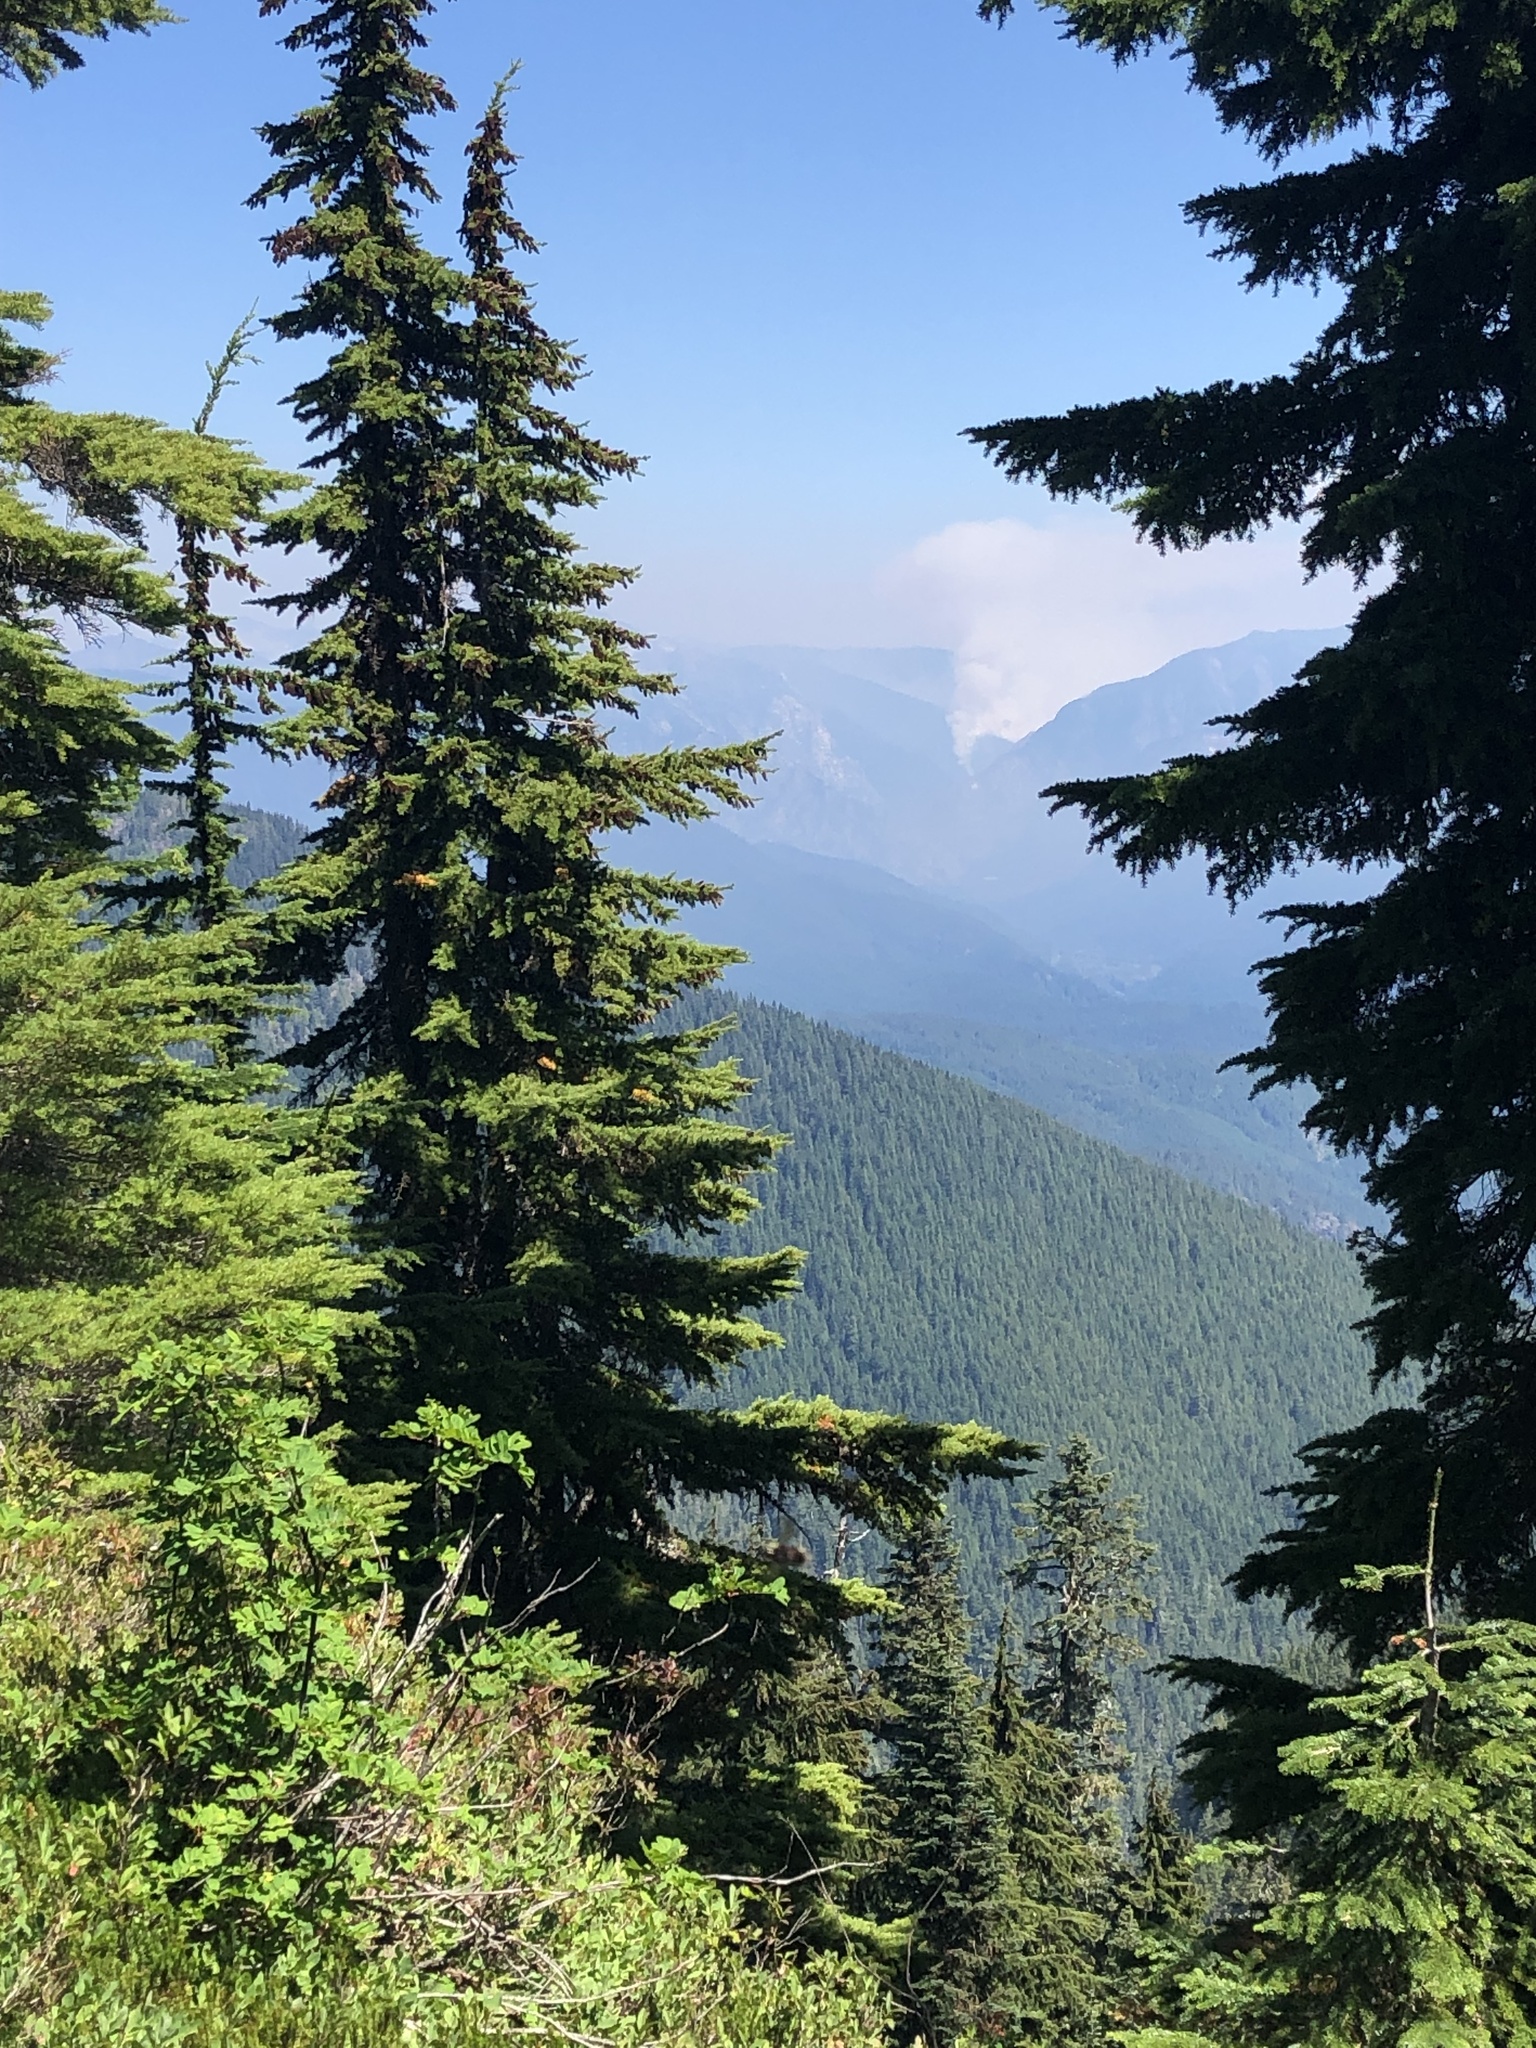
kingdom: Plantae
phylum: Tracheophyta
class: Pinopsida
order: Pinales
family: Pinaceae
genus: Tsuga
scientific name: Tsuga mertensiana
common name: Mountain hemlock
